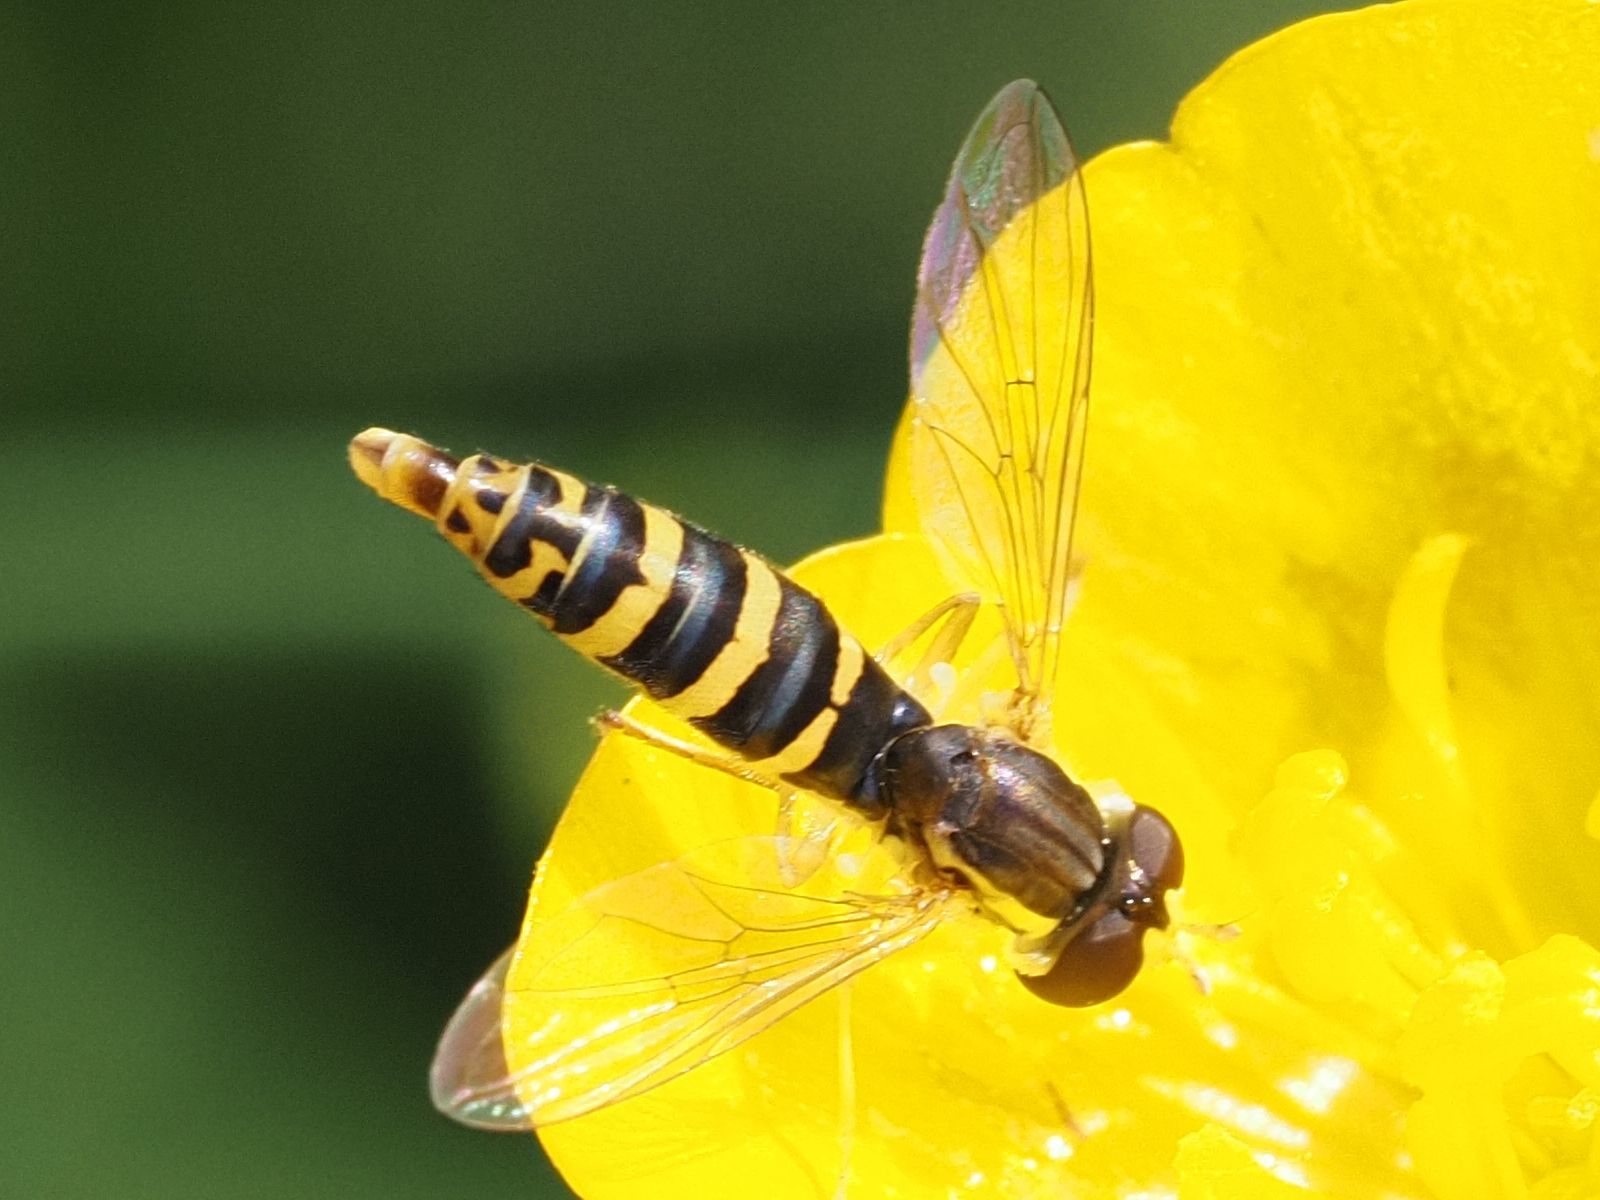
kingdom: Animalia
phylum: Arthropoda
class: Insecta
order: Diptera
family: Syrphidae
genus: Sphaerophoria
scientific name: Sphaerophoria
